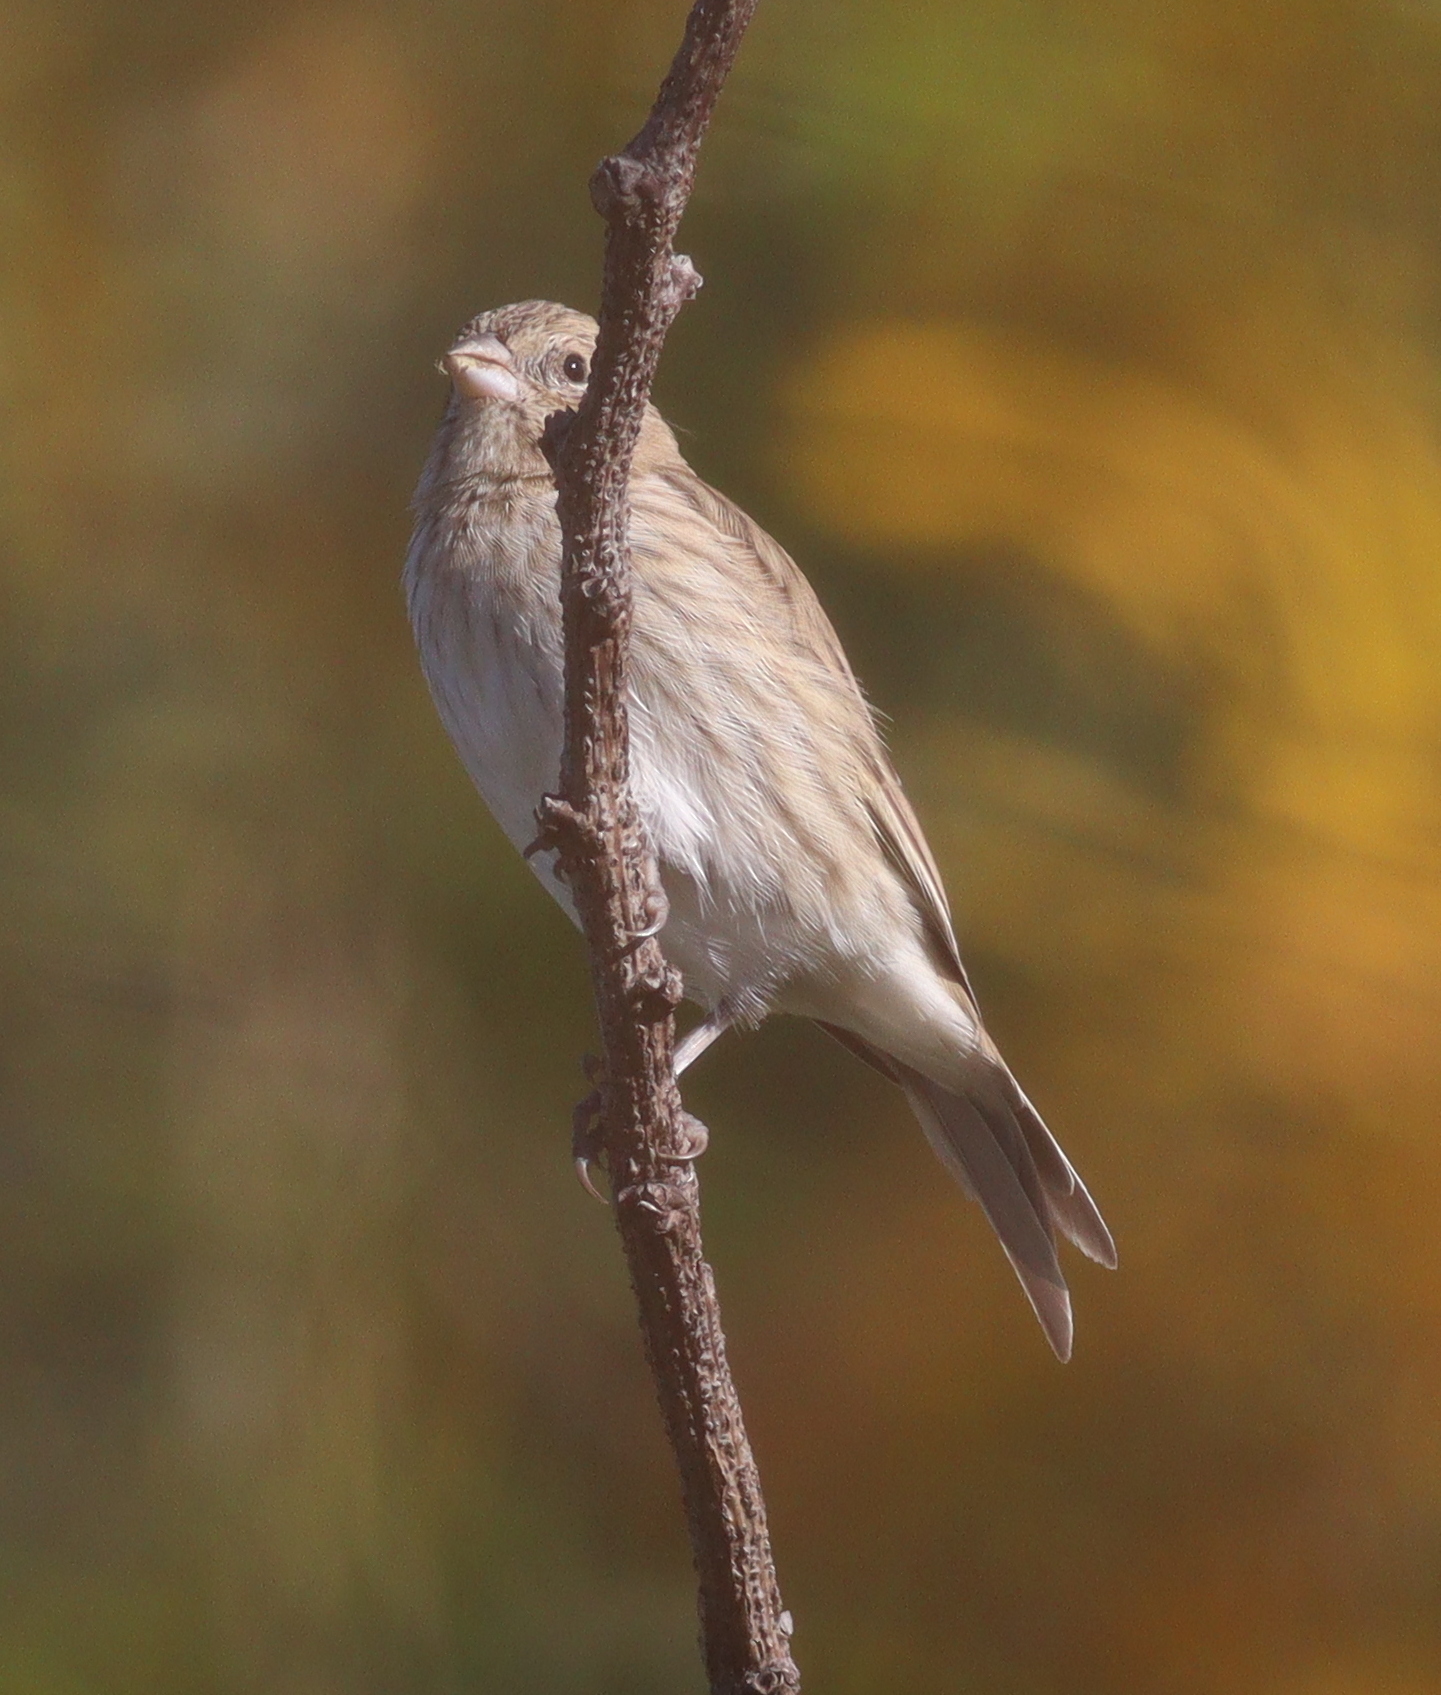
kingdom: Animalia
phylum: Chordata
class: Aves
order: Passeriformes
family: Thraupidae
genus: Sicalis
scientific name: Sicalis flaveola
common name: Saffron finch
